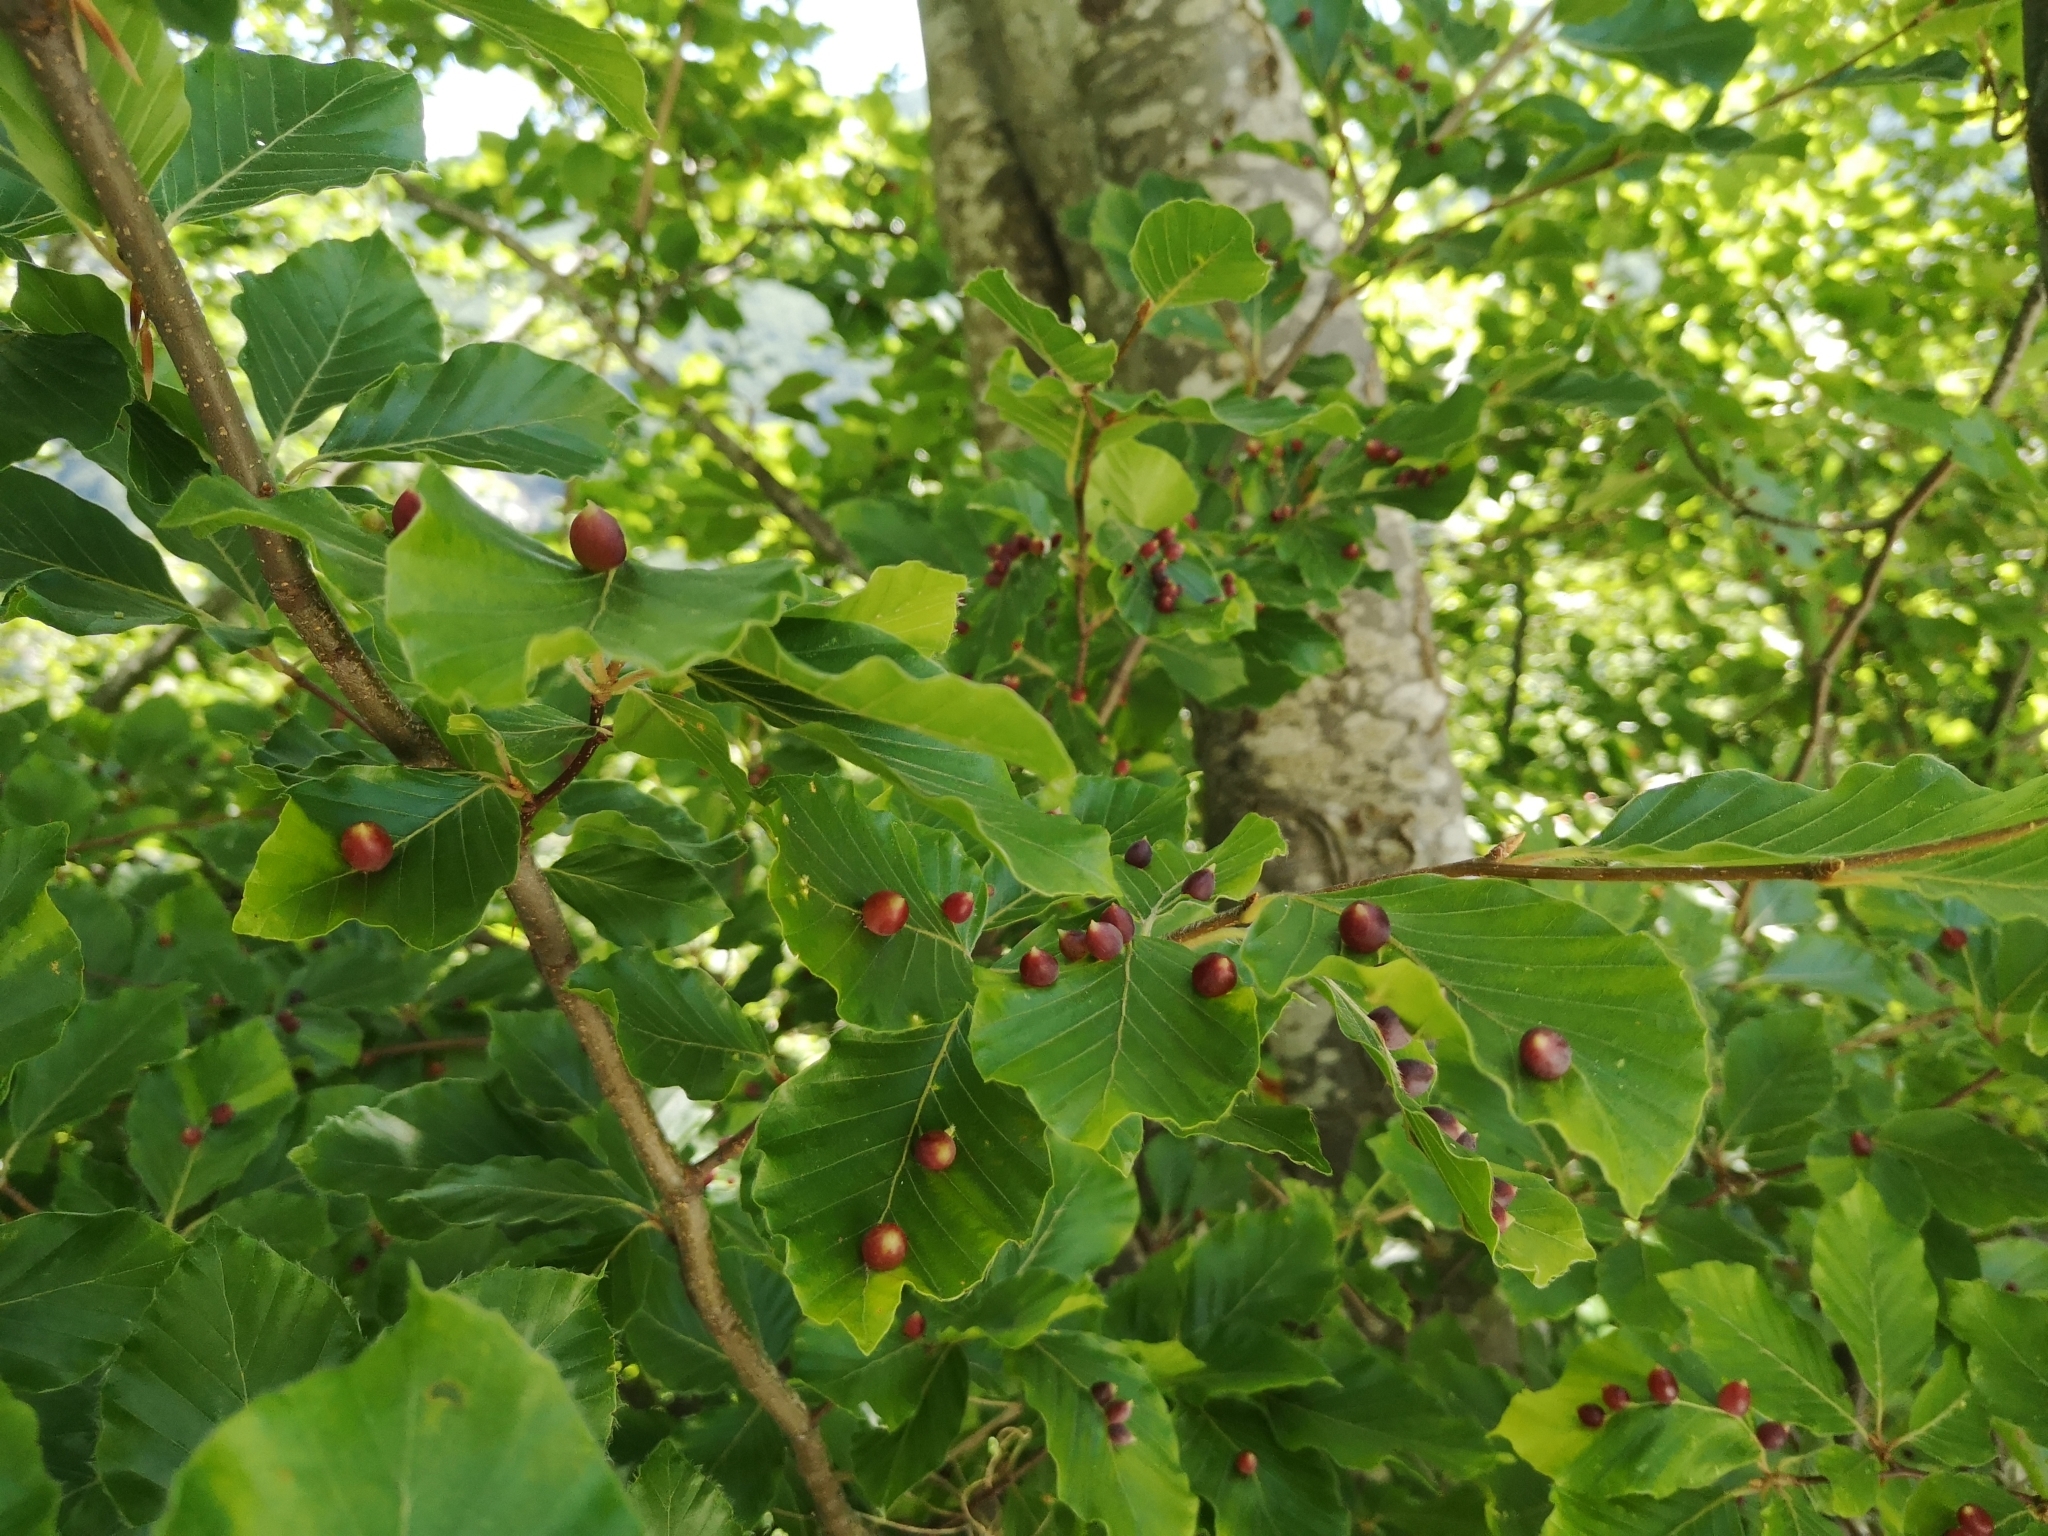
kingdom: Plantae
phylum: Tracheophyta
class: Magnoliopsida
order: Fagales
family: Fagaceae
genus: Fagus
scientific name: Fagus sylvatica
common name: Beech
